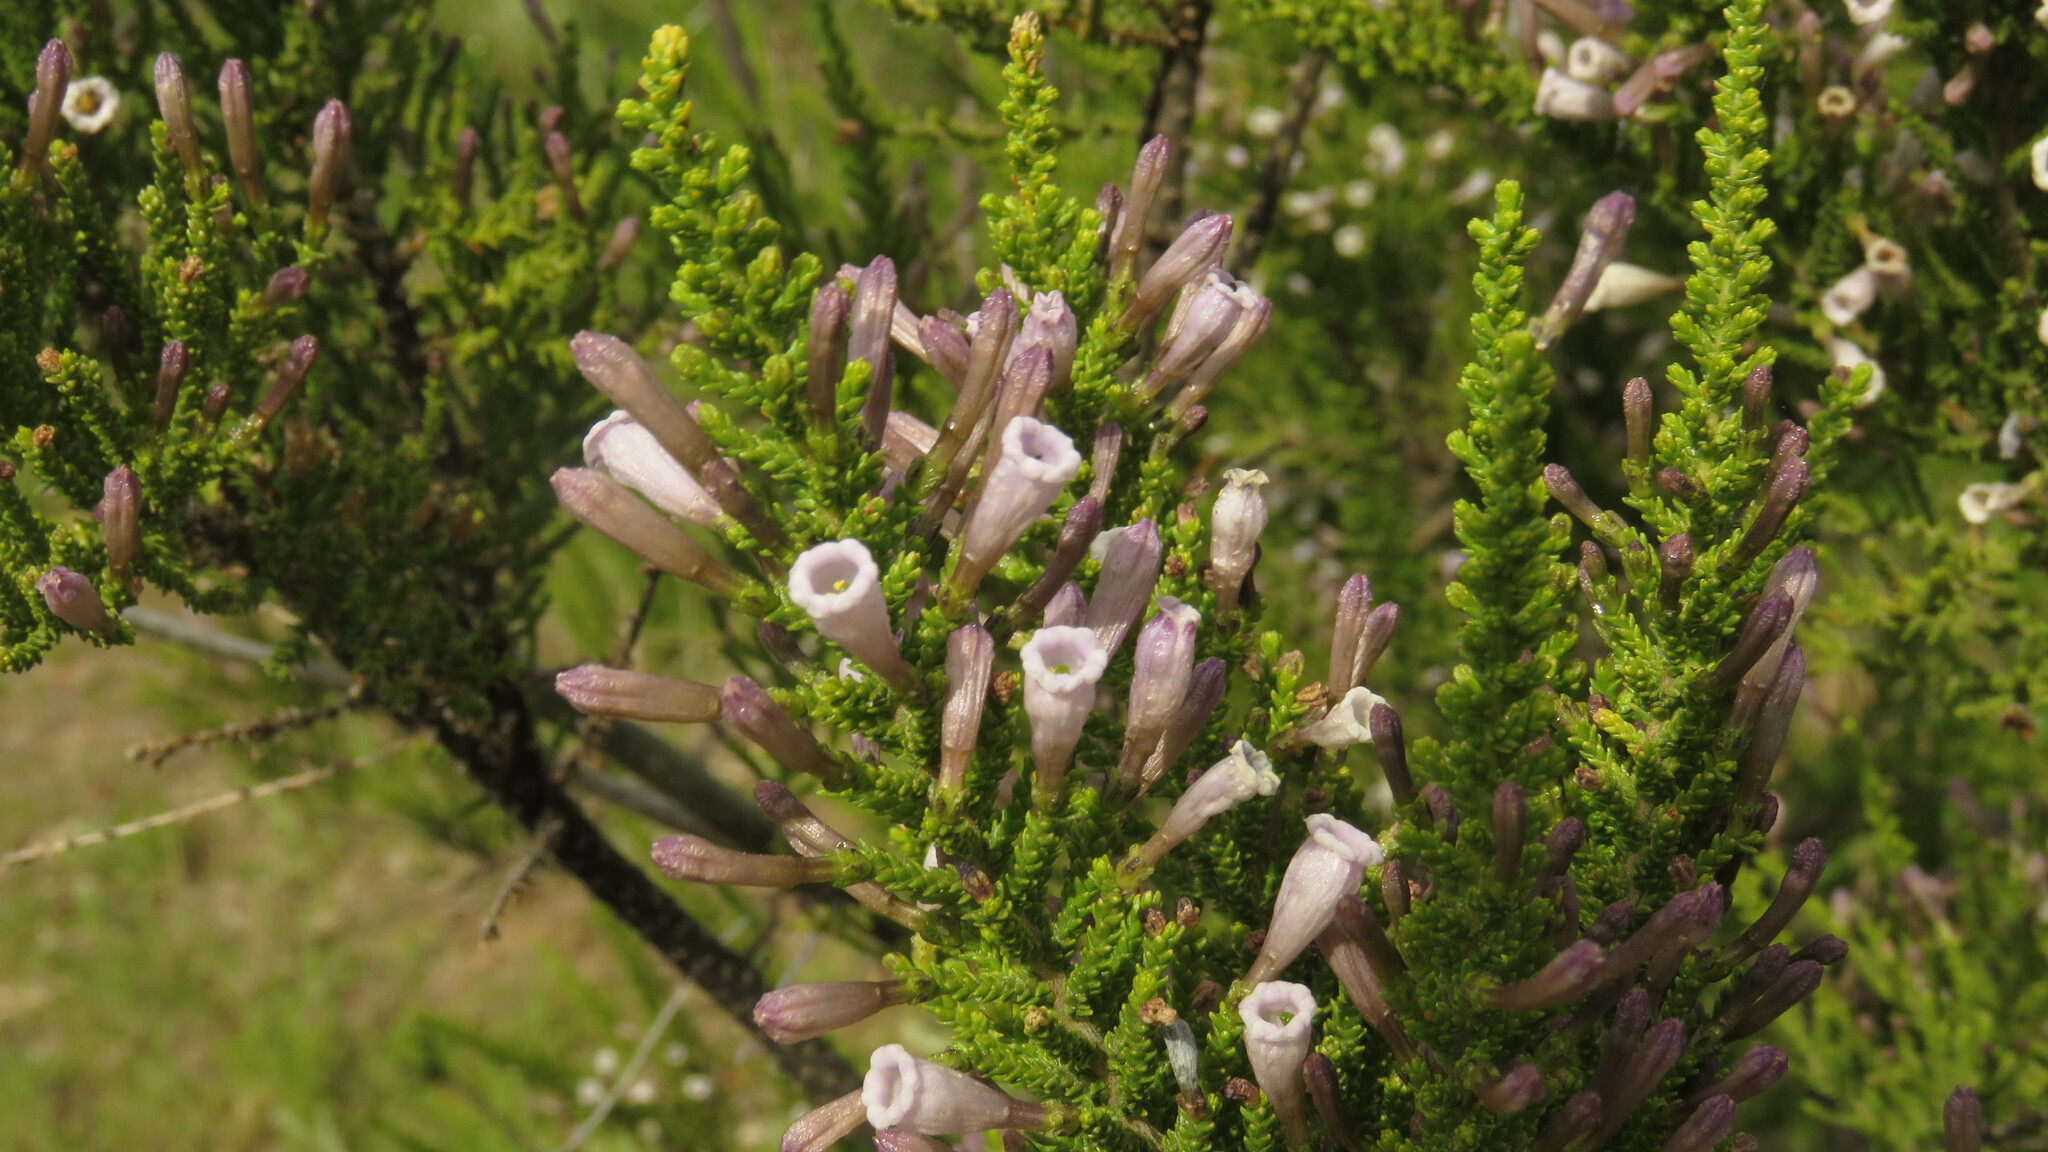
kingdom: Plantae
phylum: Tracheophyta
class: Magnoliopsida
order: Solanales
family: Solanaceae
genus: Fabiana
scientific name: Fabiana imbricata
